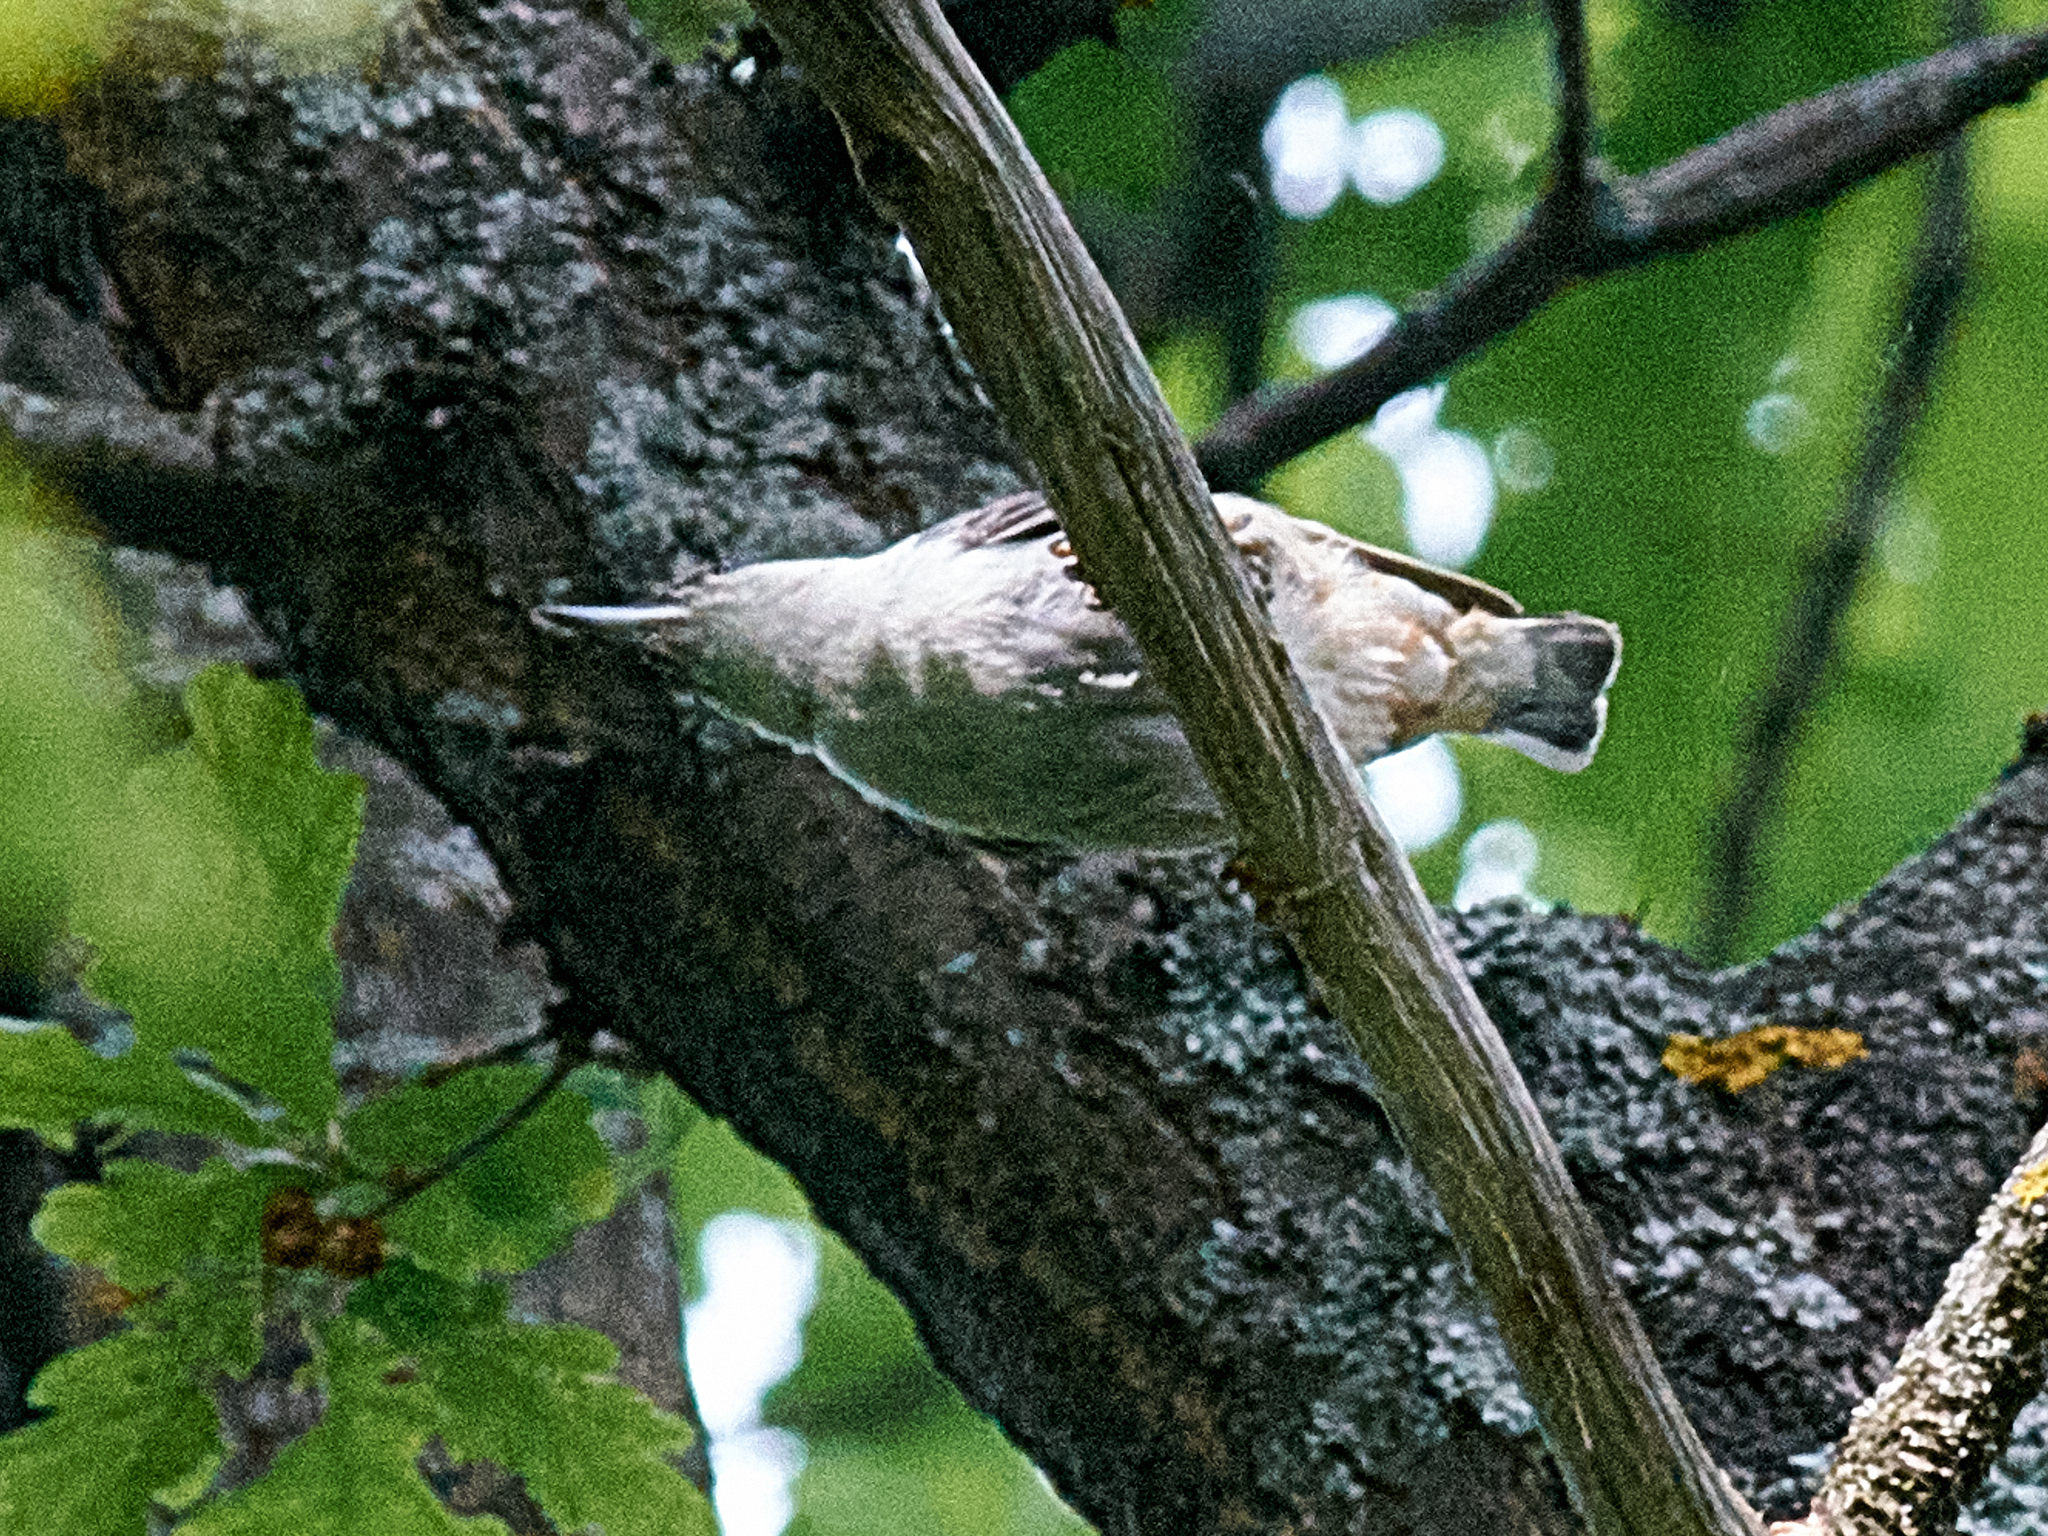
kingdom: Animalia
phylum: Chordata
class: Aves
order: Passeriformes
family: Sittidae
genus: Sitta
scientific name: Sitta europaea
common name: Eurasian nuthatch
